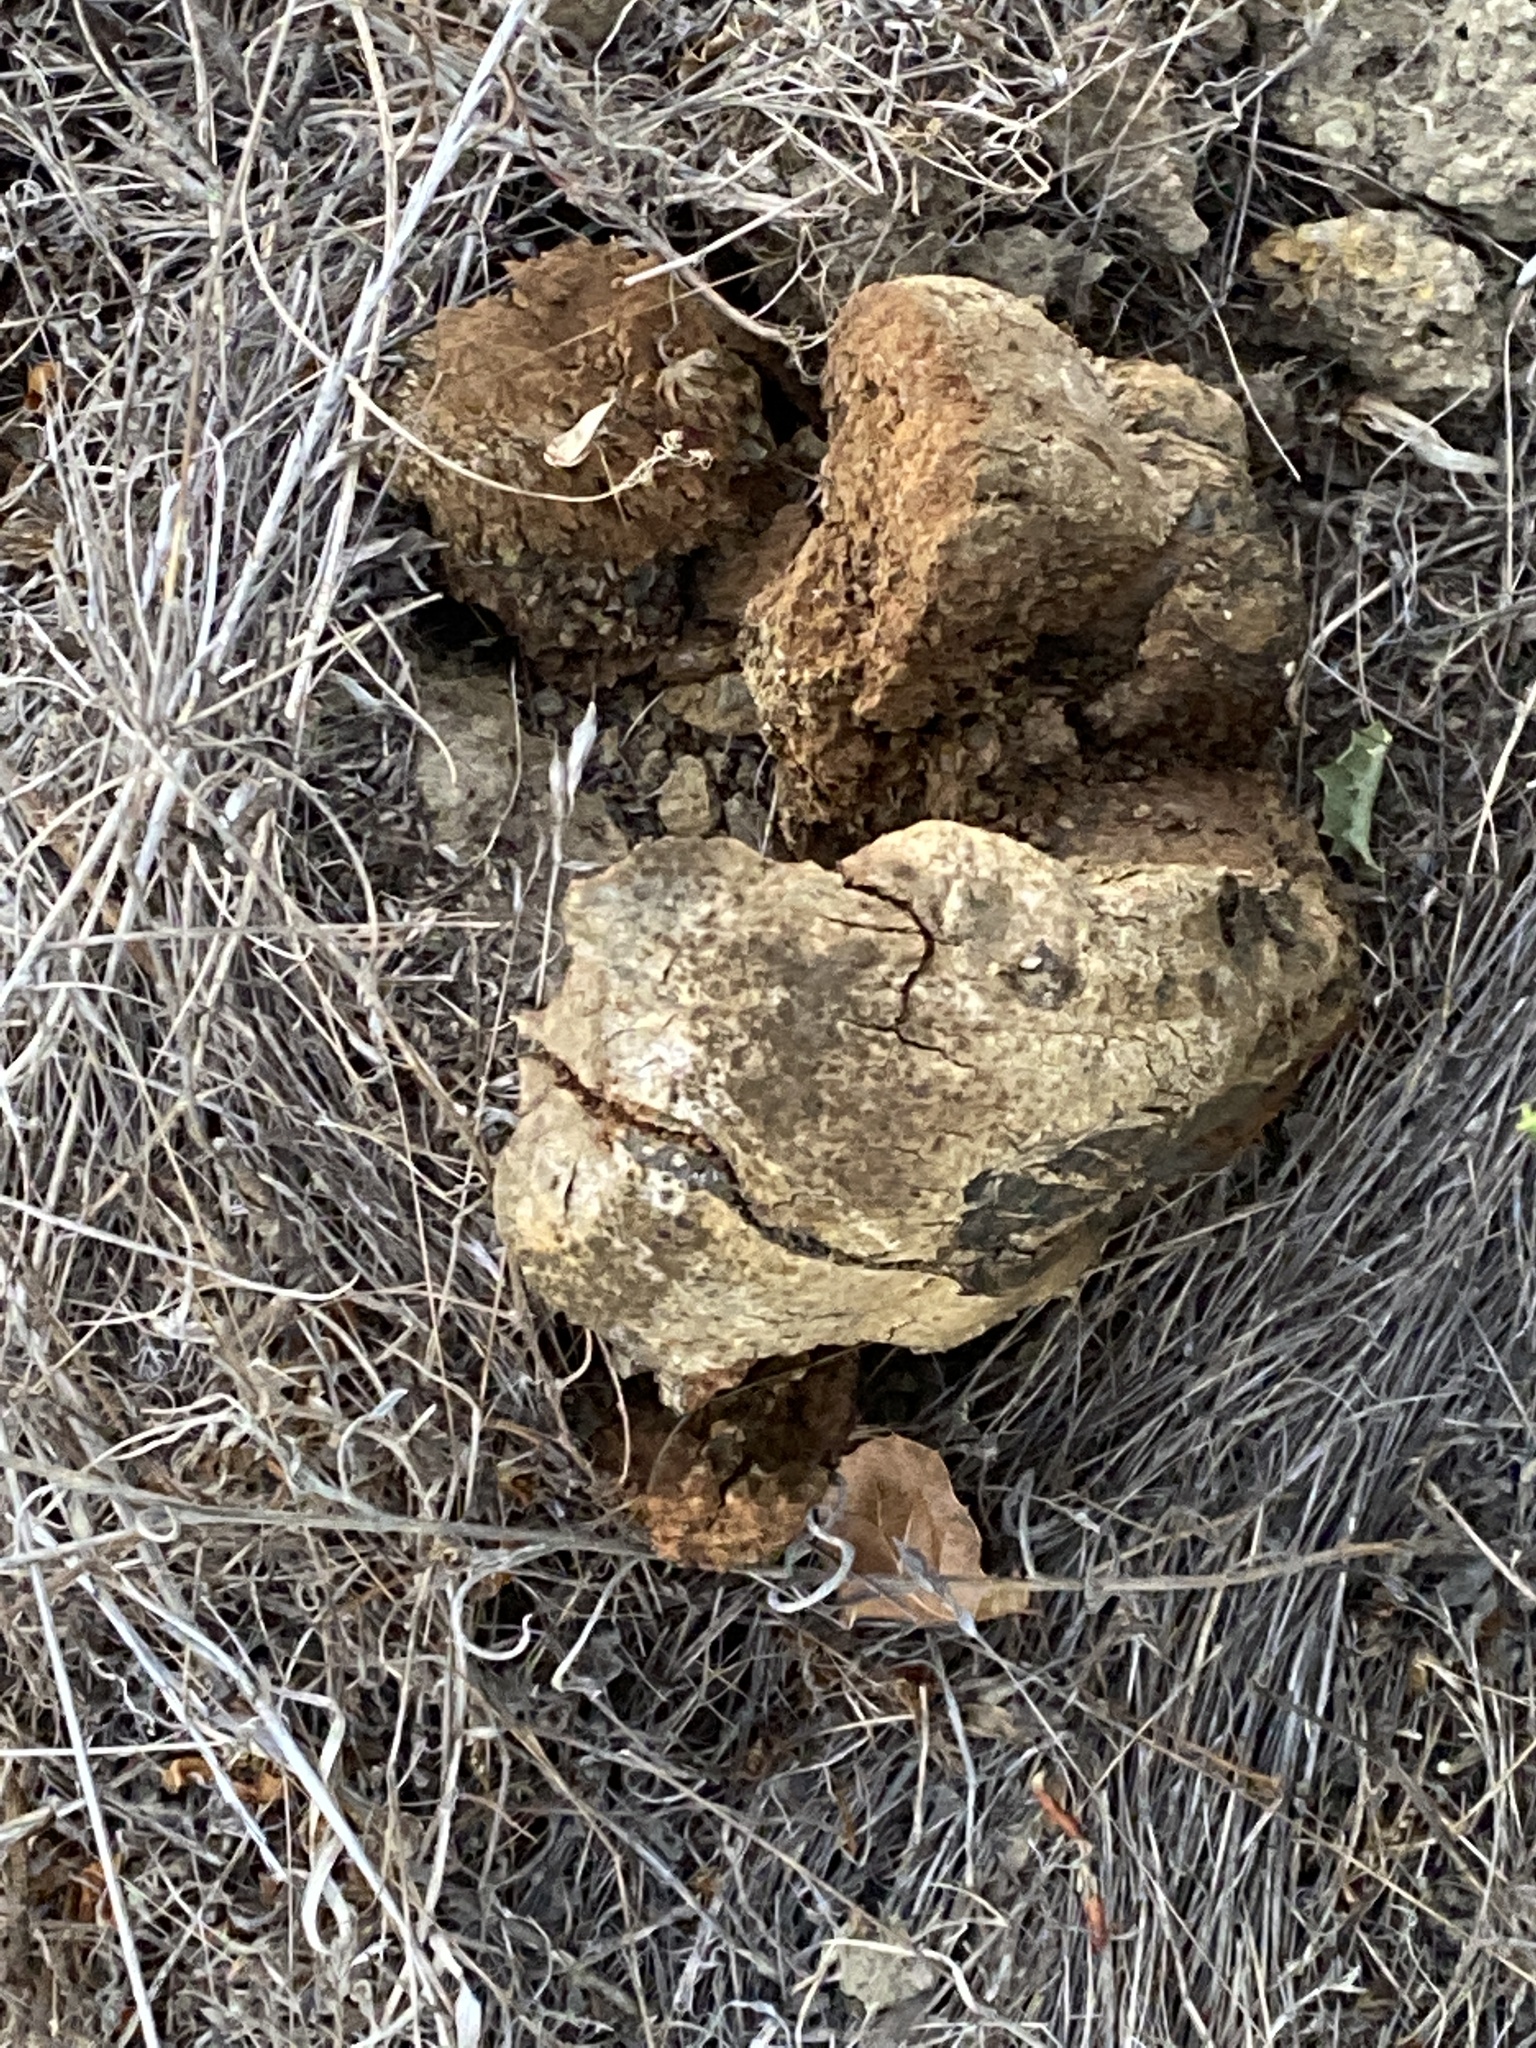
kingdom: Fungi
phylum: Basidiomycota
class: Agaricomycetes
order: Boletales
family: Sclerodermataceae
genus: Pisolithus
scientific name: Pisolithus tinctorius
